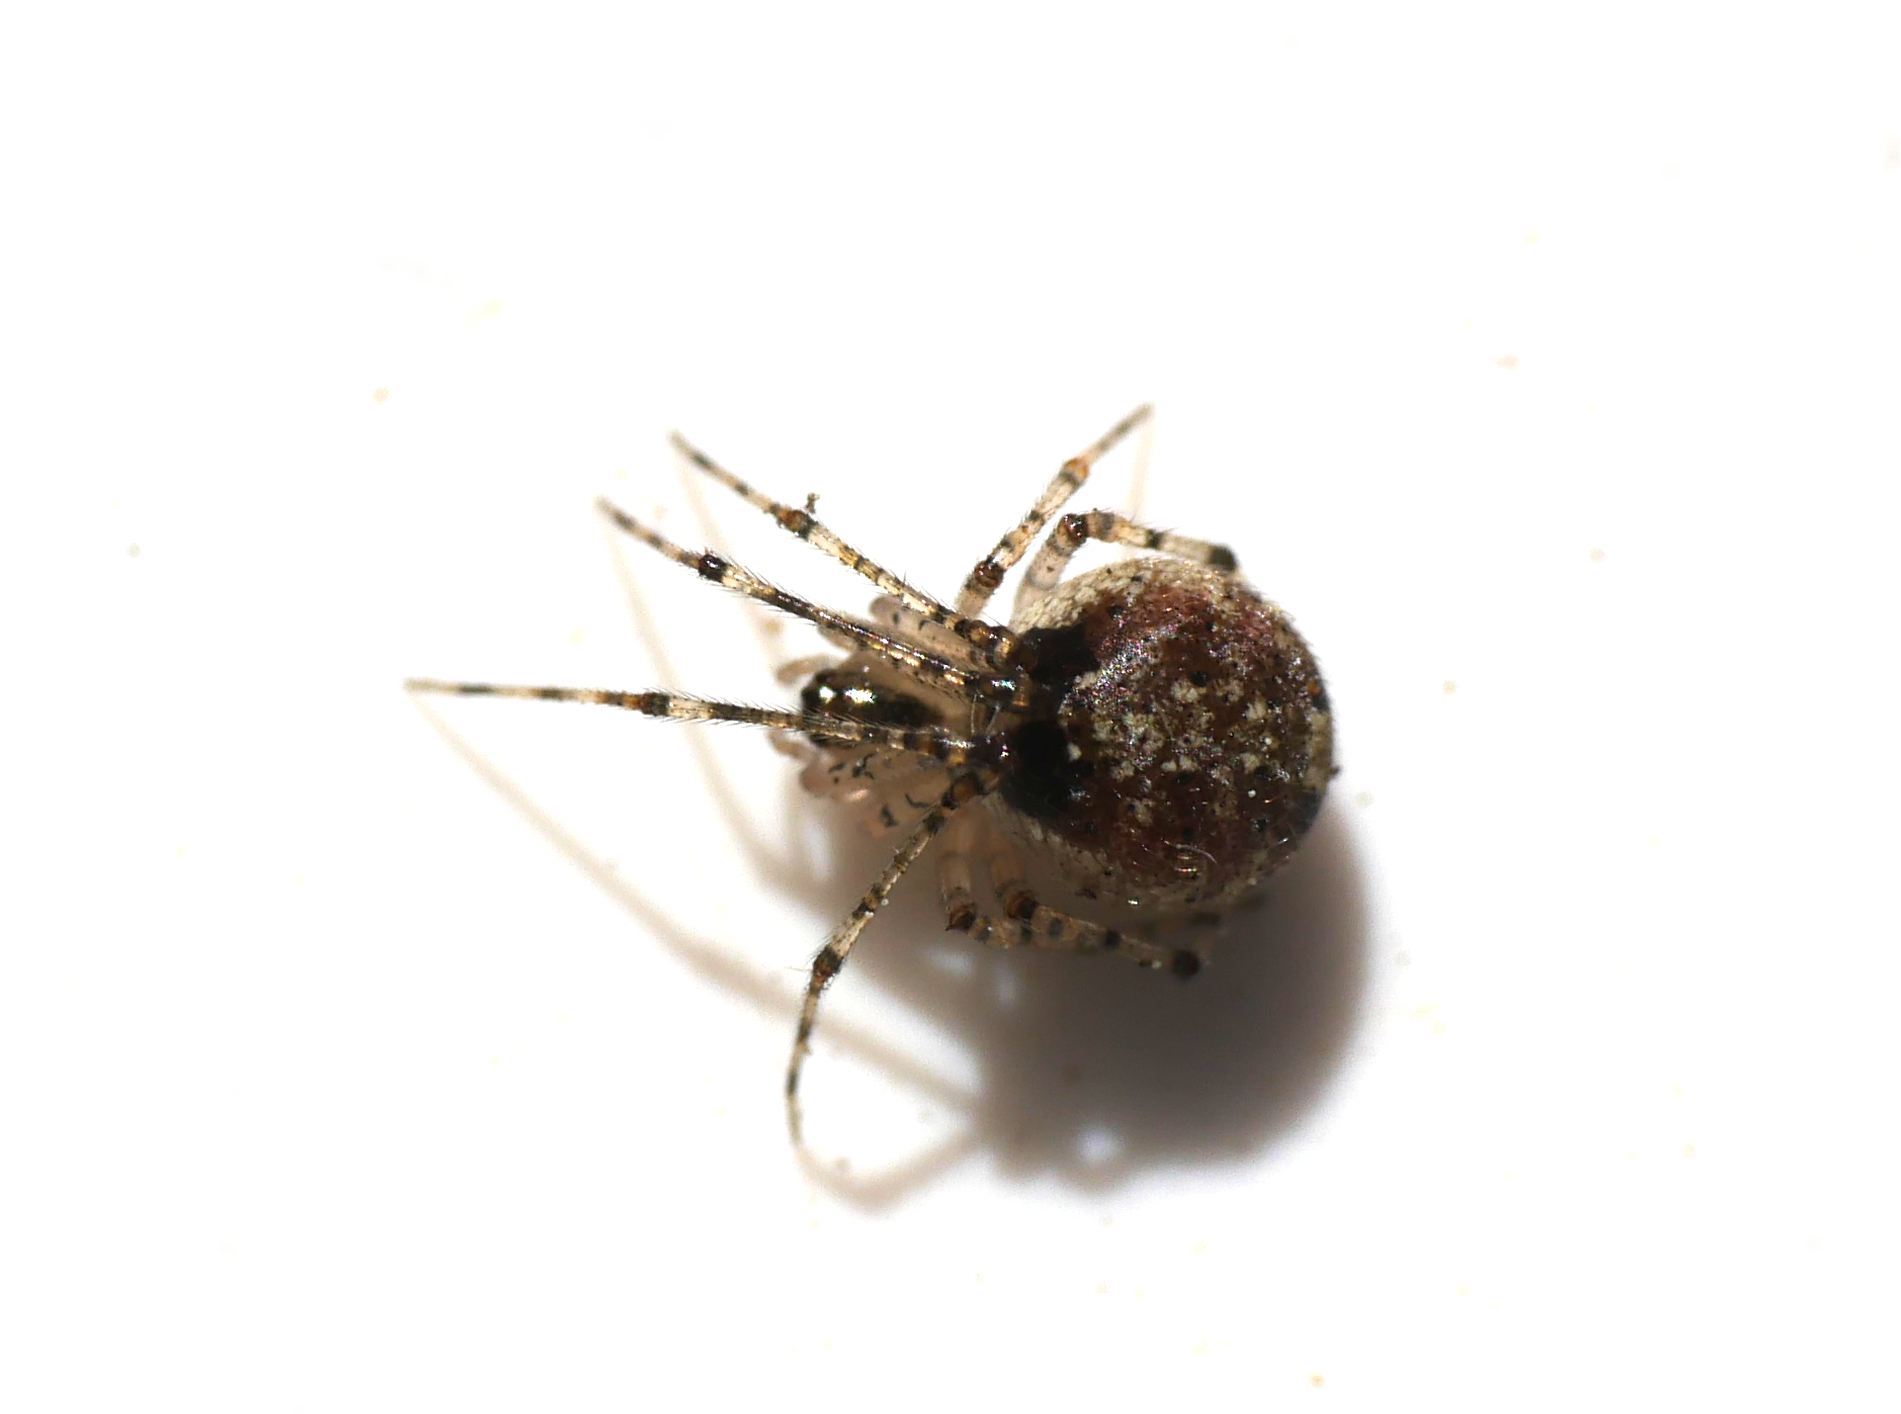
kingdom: Animalia
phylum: Arthropoda
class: Arachnida
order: Araneae
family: Theridiidae
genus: Platnickina
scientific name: Platnickina tincta
